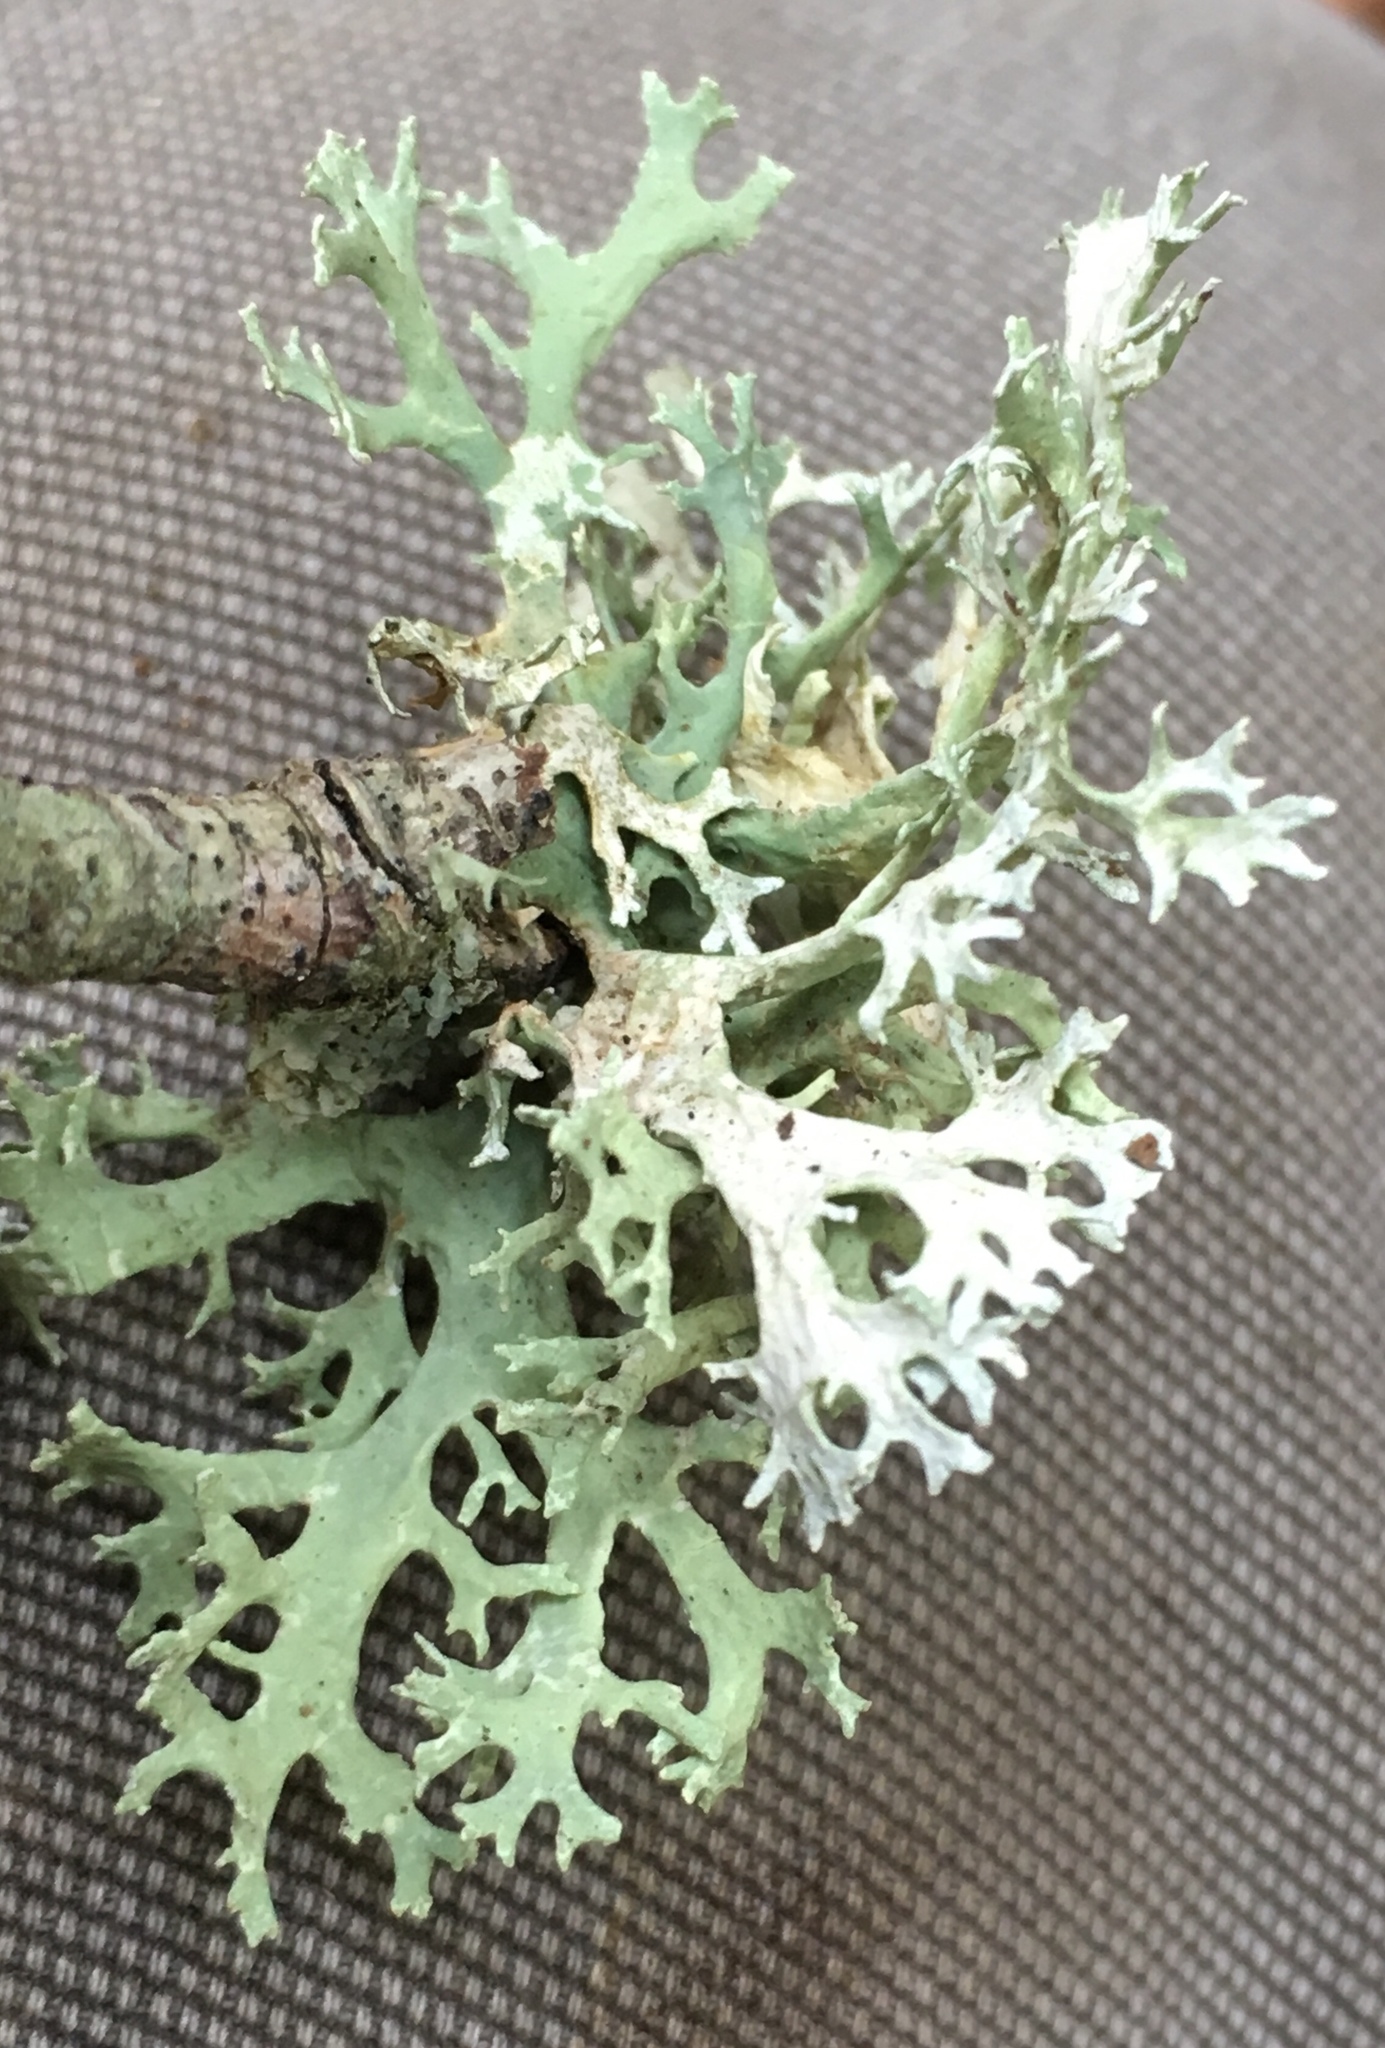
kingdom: Fungi
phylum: Ascomycota
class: Lecanoromycetes
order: Lecanorales
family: Parmeliaceae
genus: Evernia
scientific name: Evernia prunastri
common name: Oak moss
